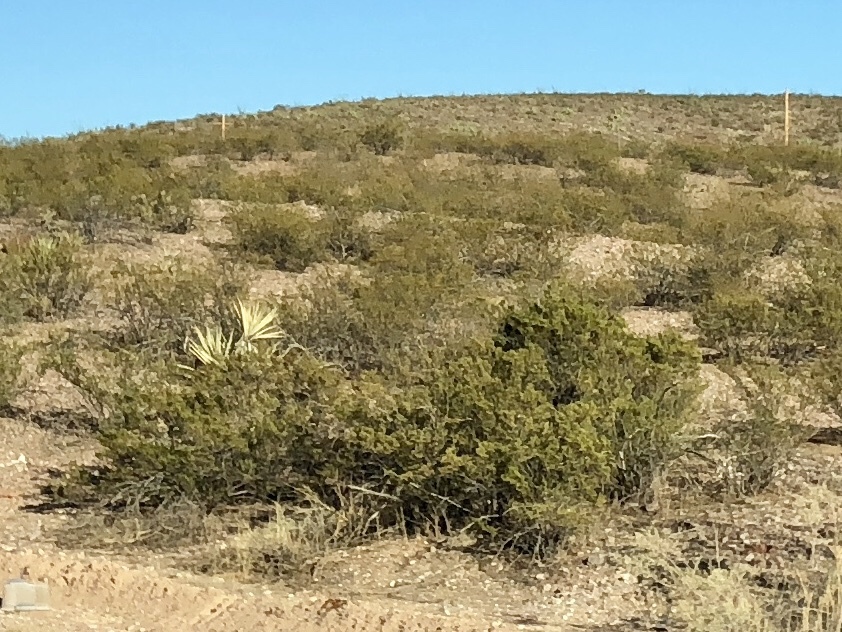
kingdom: Plantae
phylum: Tracheophyta
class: Magnoliopsida
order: Zygophyllales
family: Zygophyllaceae
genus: Larrea
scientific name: Larrea tridentata
